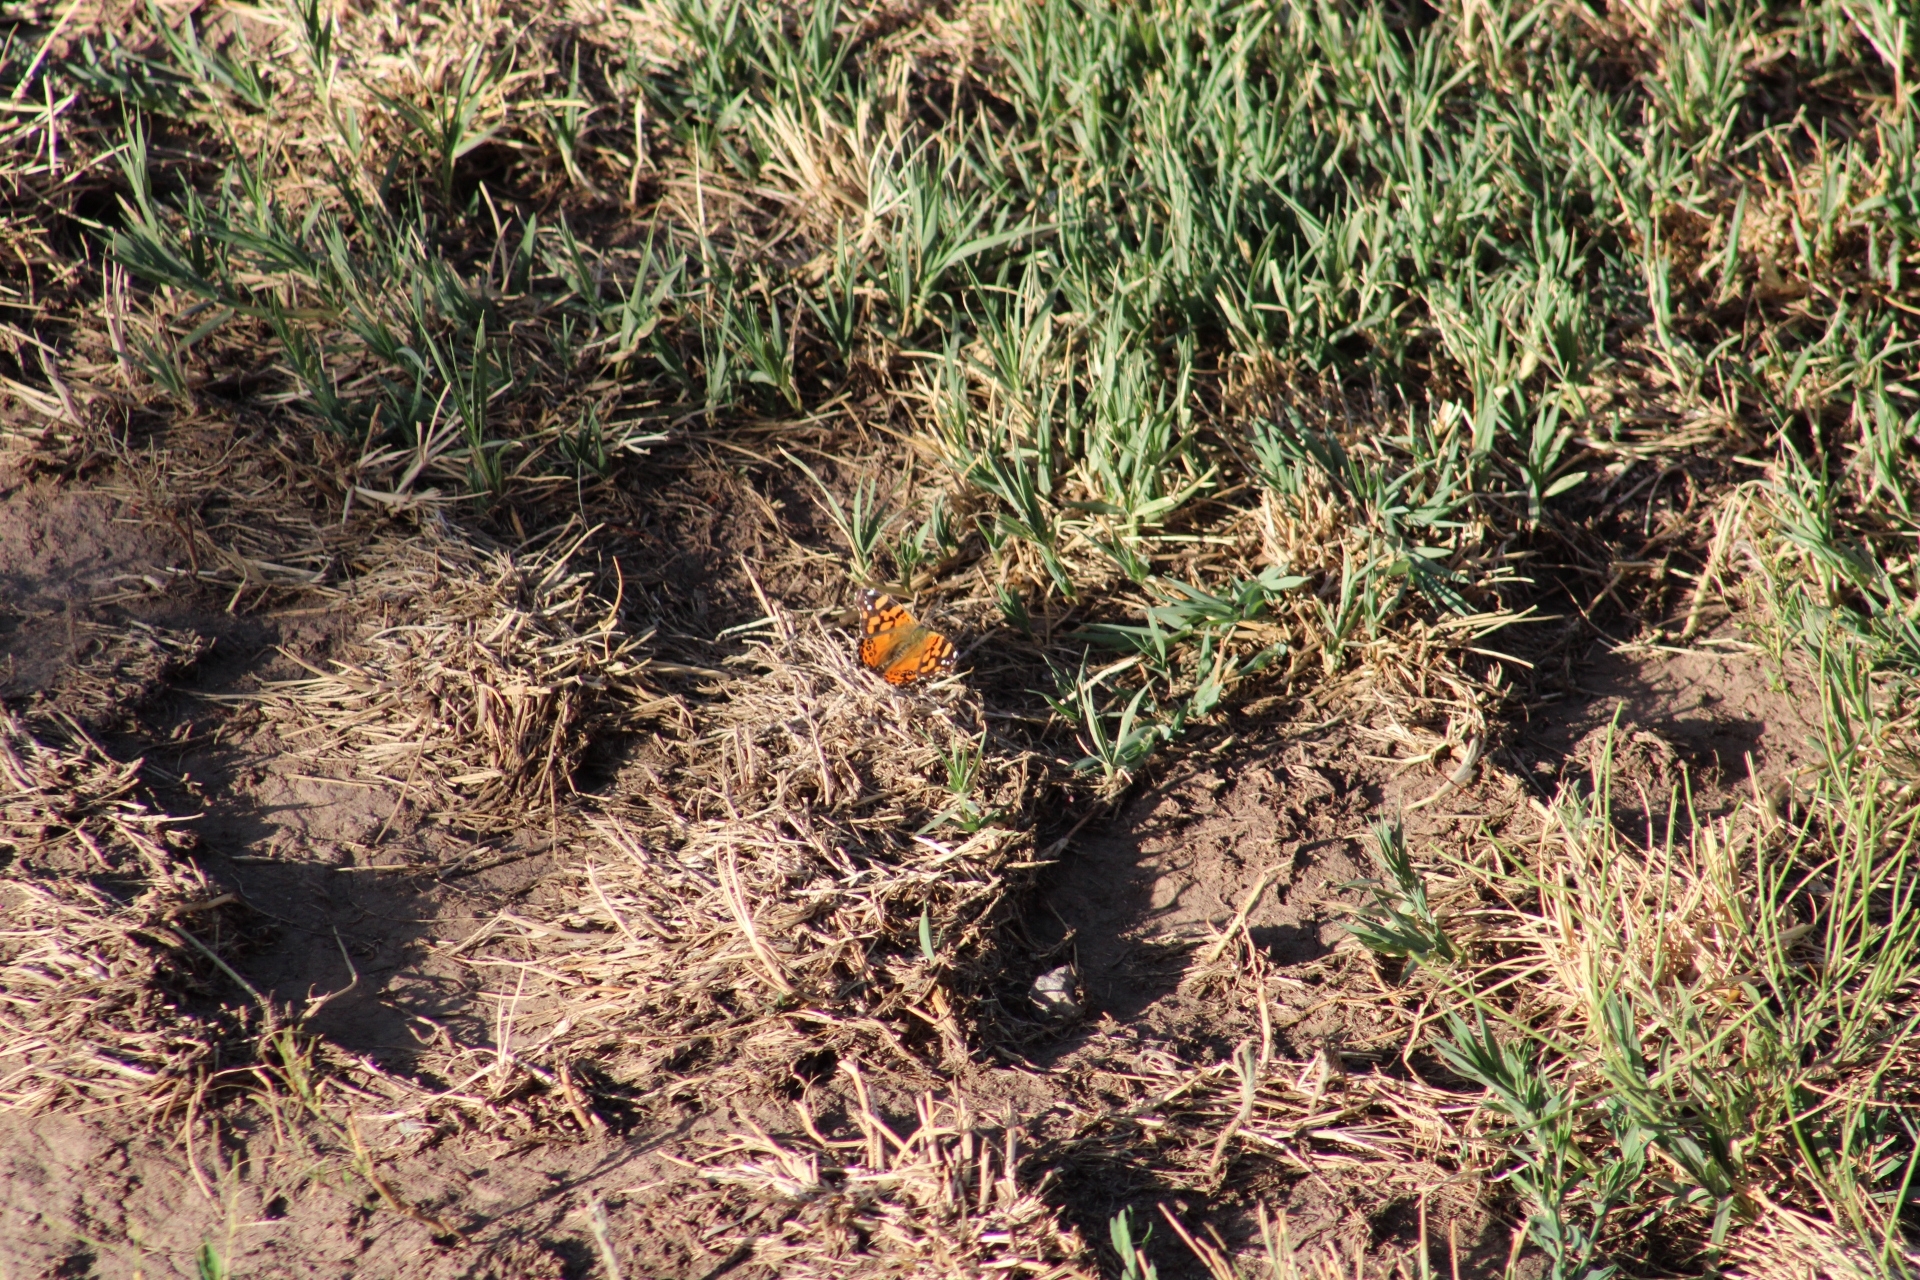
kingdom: Animalia
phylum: Arthropoda
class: Insecta
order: Lepidoptera
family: Nymphalidae
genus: Vanessa
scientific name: Vanessa carye
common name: Subtropical lady
